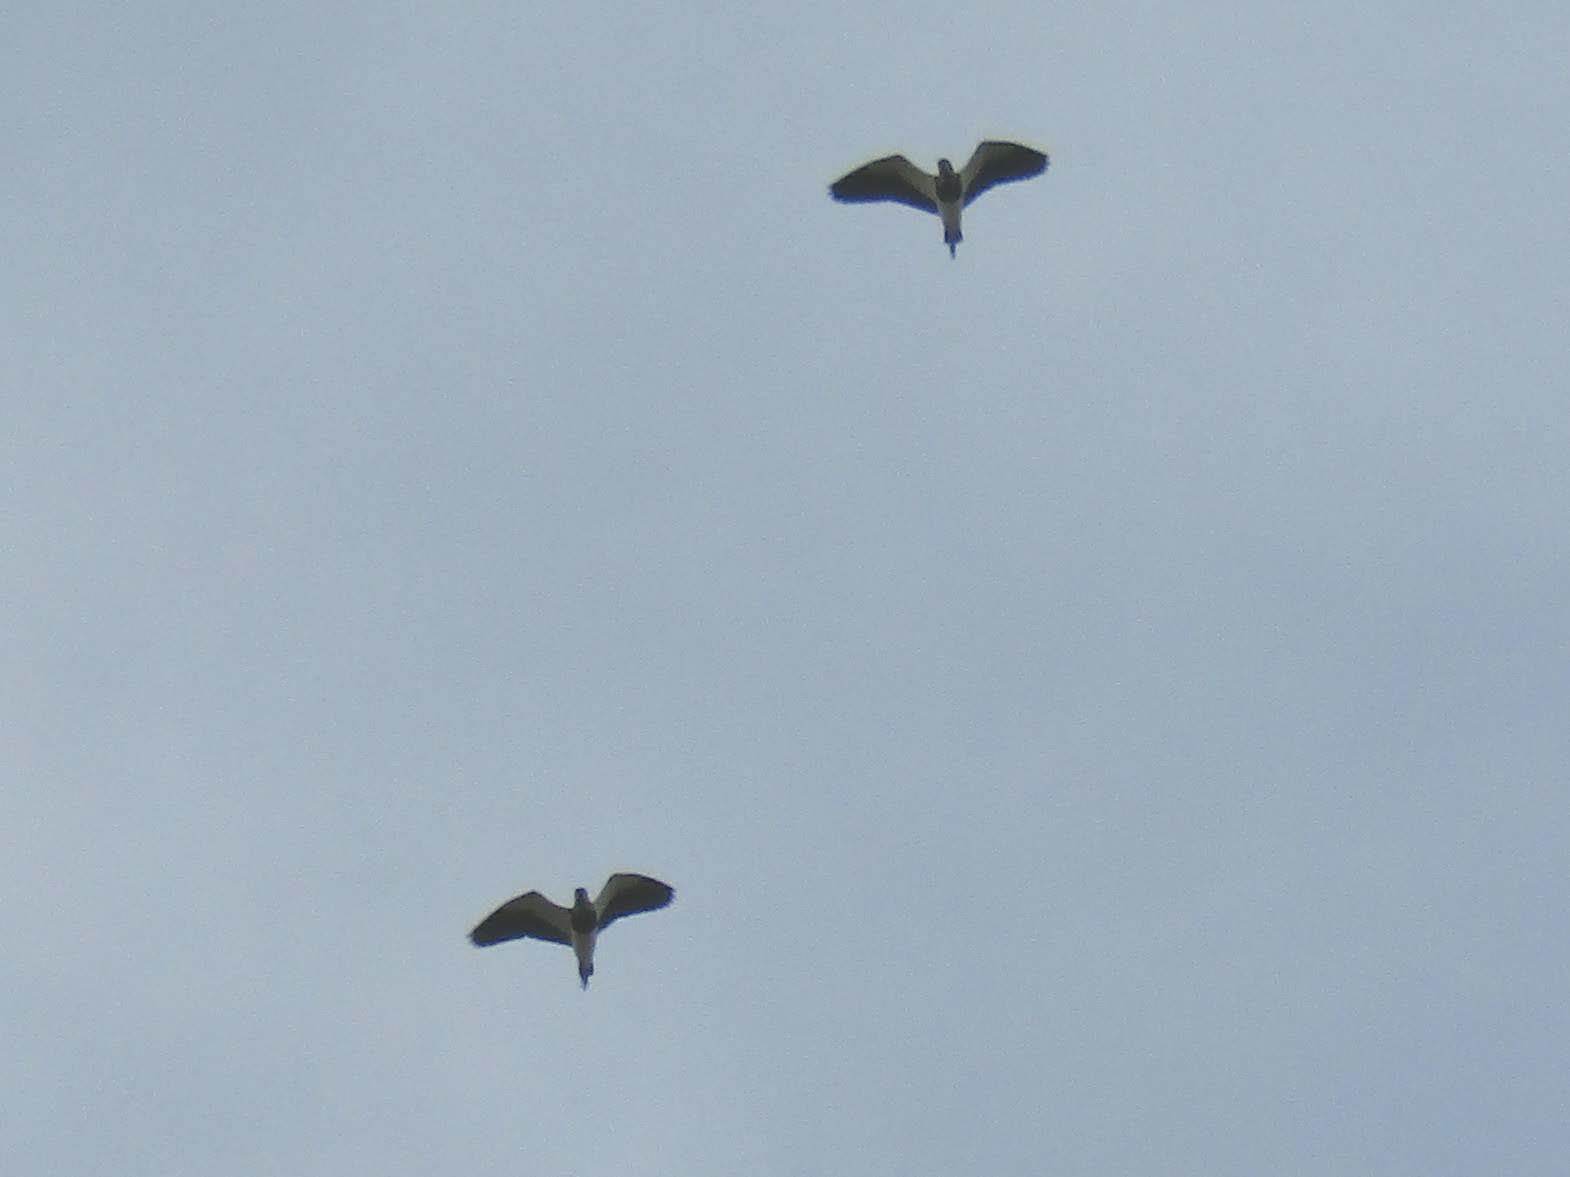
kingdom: Animalia
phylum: Chordata
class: Aves
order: Charadriiformes
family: Charadriidae
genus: Vanellus
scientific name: Vanellus chilensis
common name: Southern lapwing
